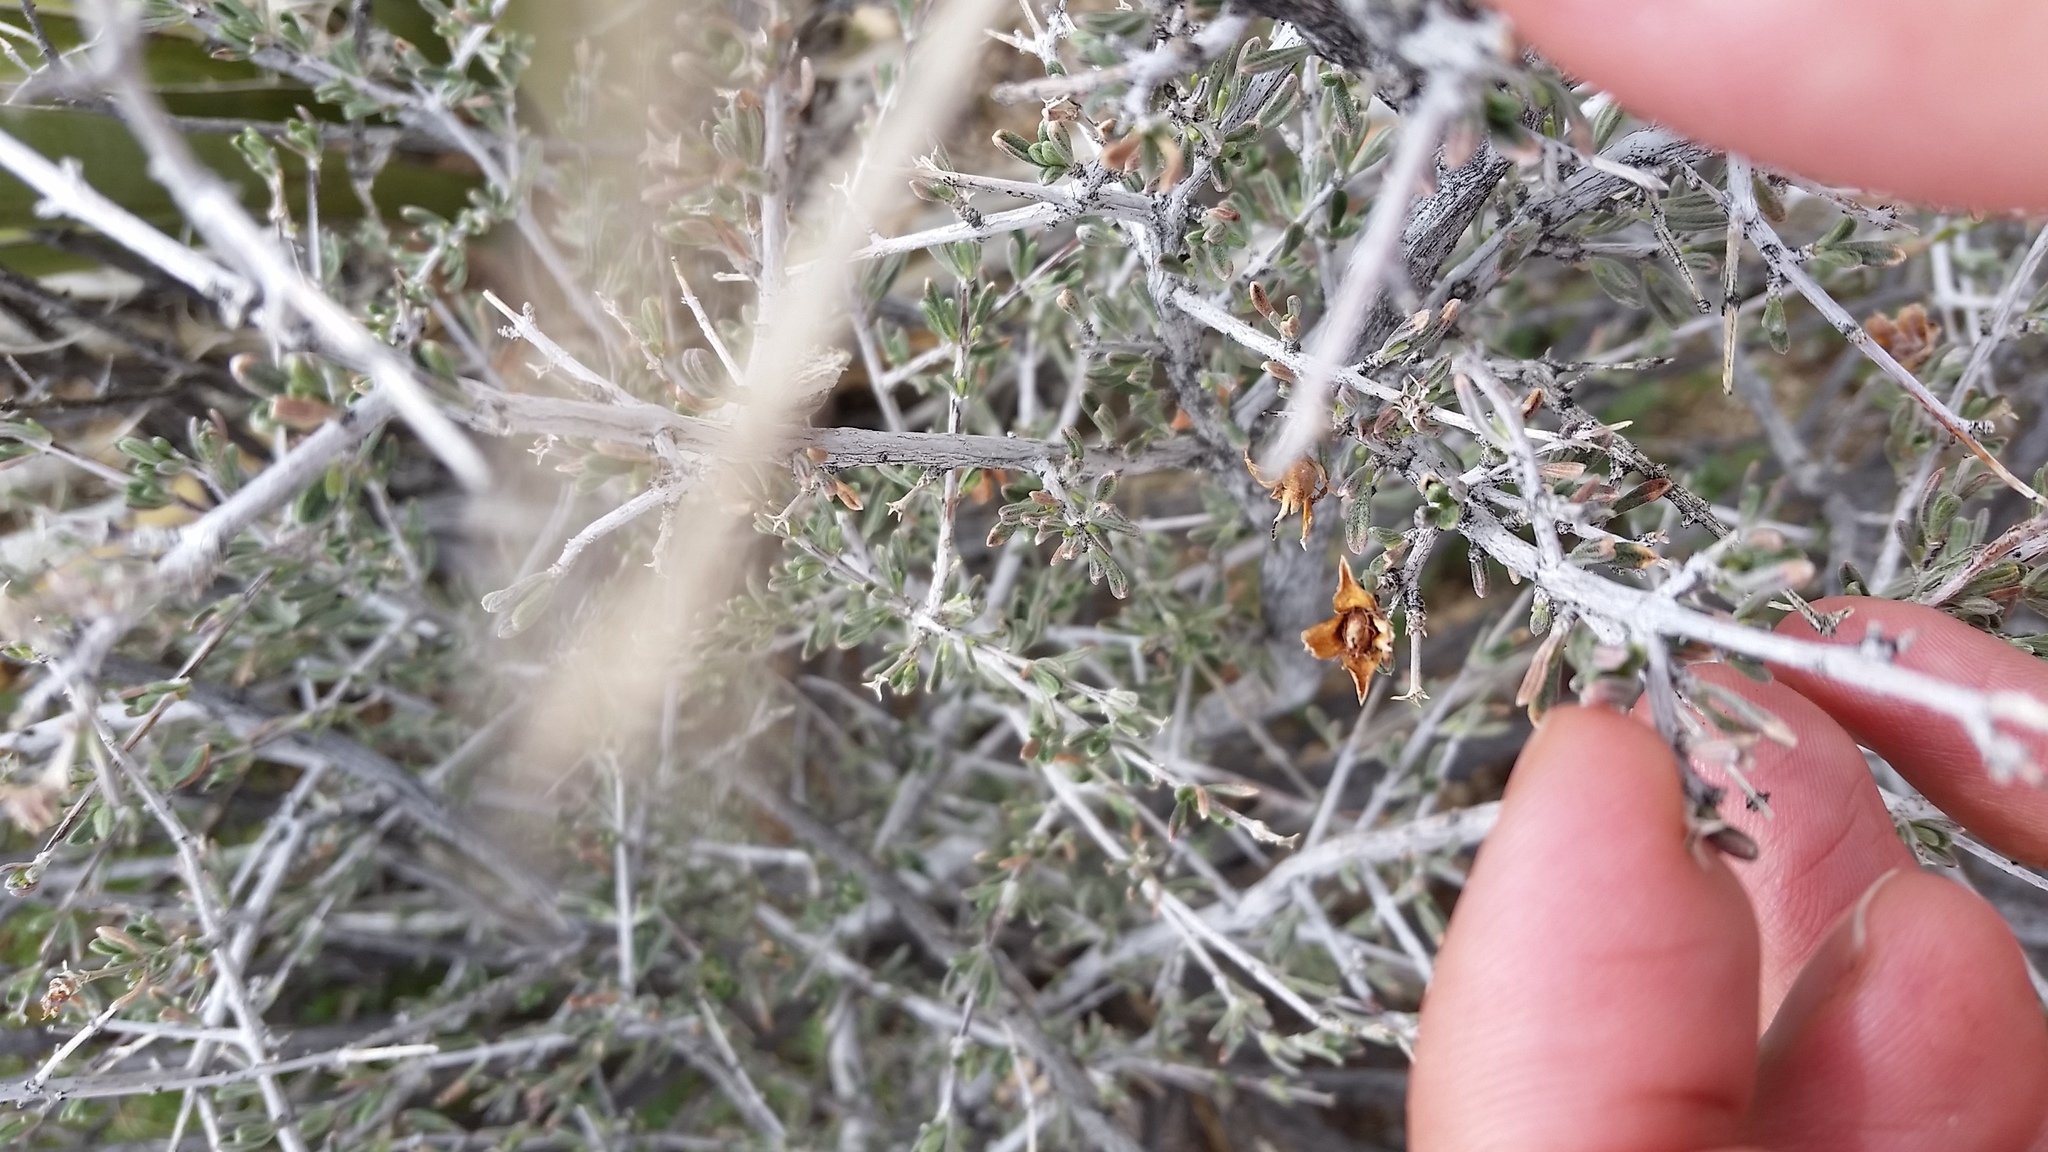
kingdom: Plantae
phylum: Tracheophyta
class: Magnoliopsida
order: Rosales
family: Rosaceae
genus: Coleogyne
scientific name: Coleogyne ramosissima
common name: Blackbrush
